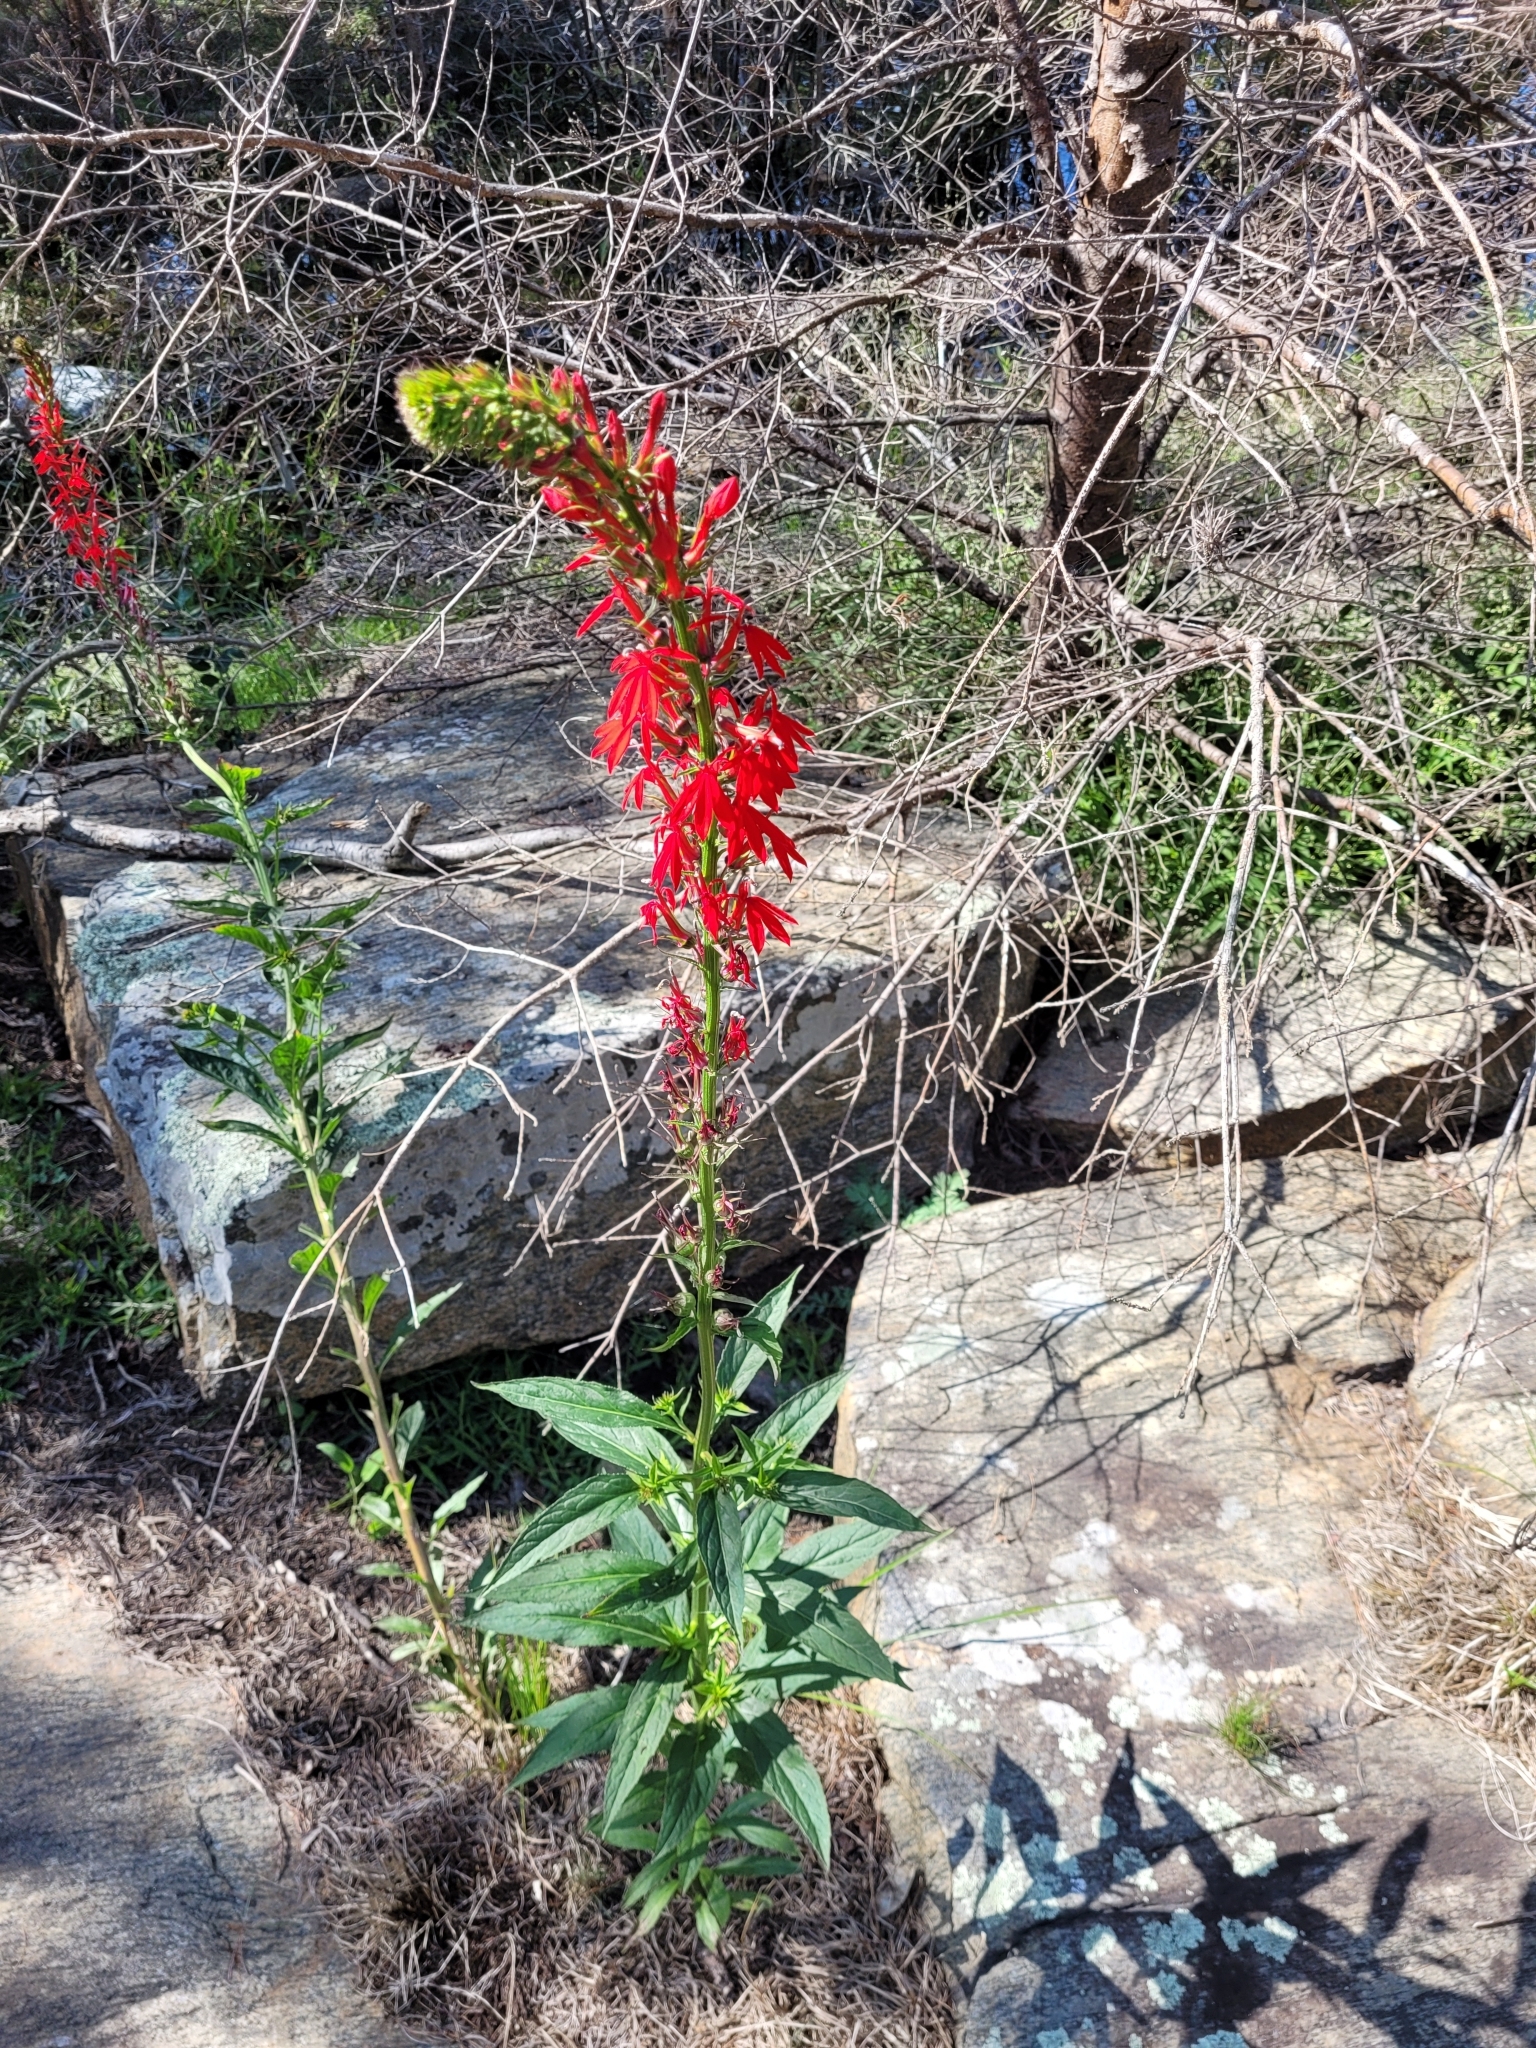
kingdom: Plantae
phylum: Tracheophyta
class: Magnoliopsida
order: Asterales
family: Campanulaceae
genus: Lobelia
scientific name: Lobelia cardinalis
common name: Cardinal flower
